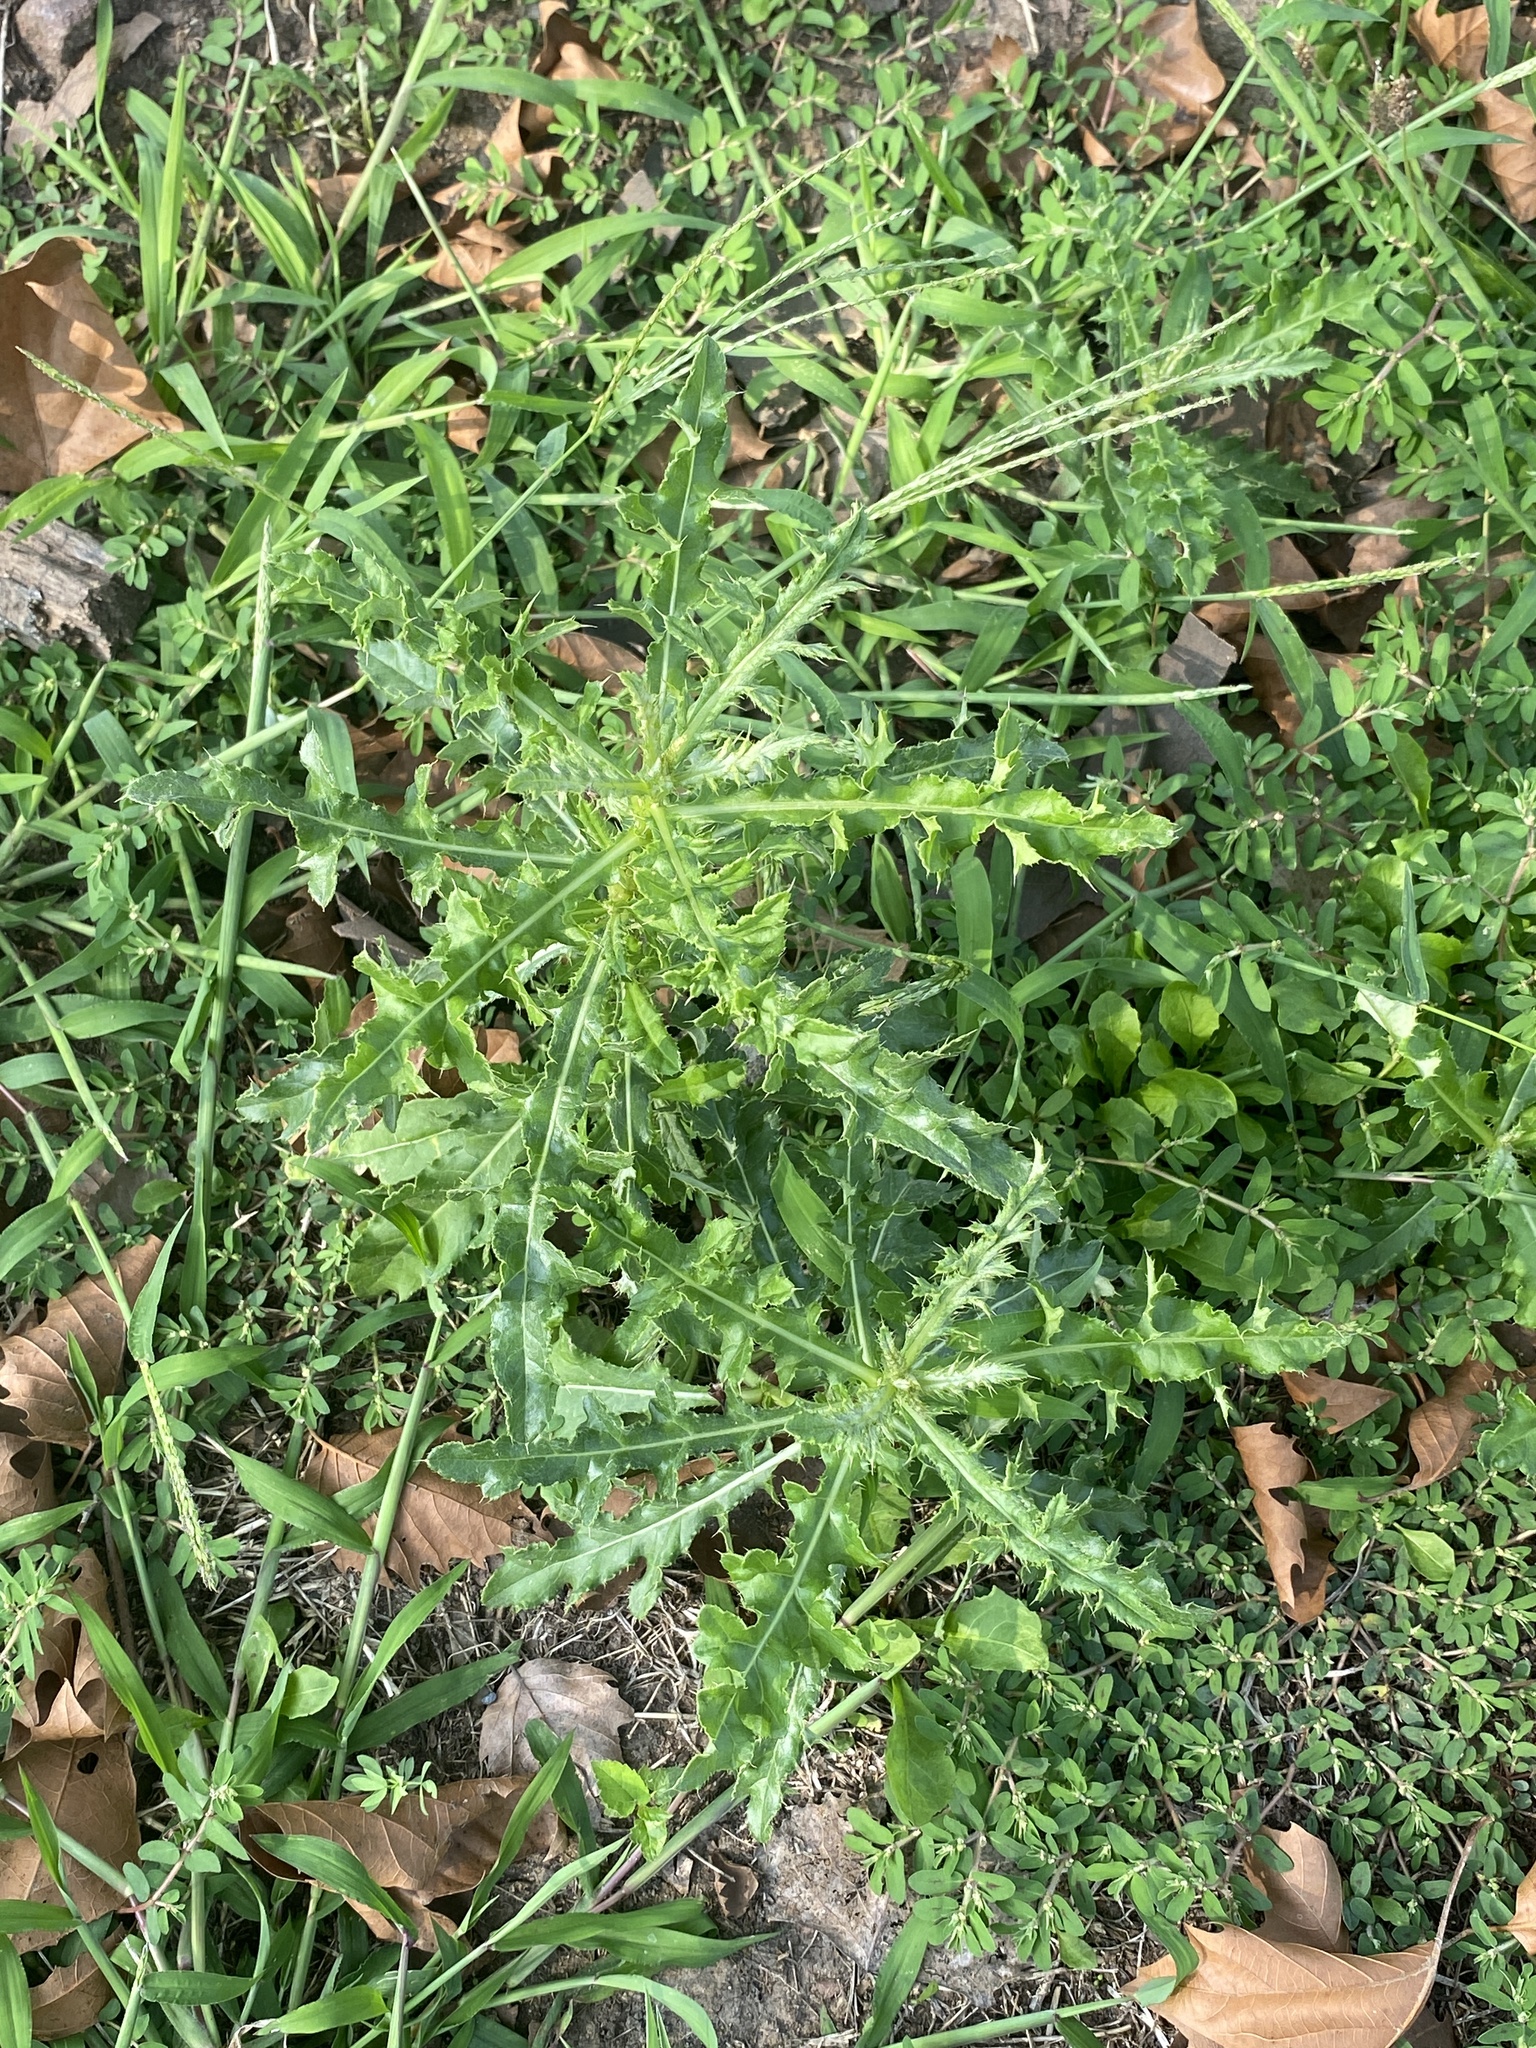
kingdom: Plantae
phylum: Tracheophyta
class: Magnoliopsida
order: Asterales
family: Asteraceae
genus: Cirsium
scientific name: Cirsium arvense
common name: Creeping thistle
